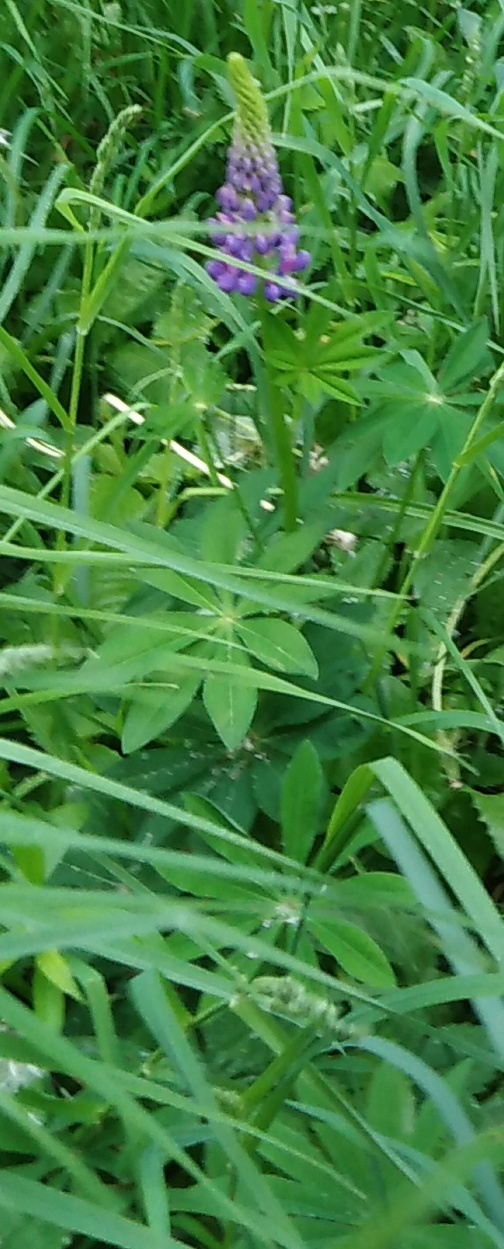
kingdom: Plantae
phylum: Tracheophyta
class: Magnoliopsida
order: Fabales
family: Fabaceae
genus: Lupinus
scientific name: Lupinus polyphyllus
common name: Garden lupin
